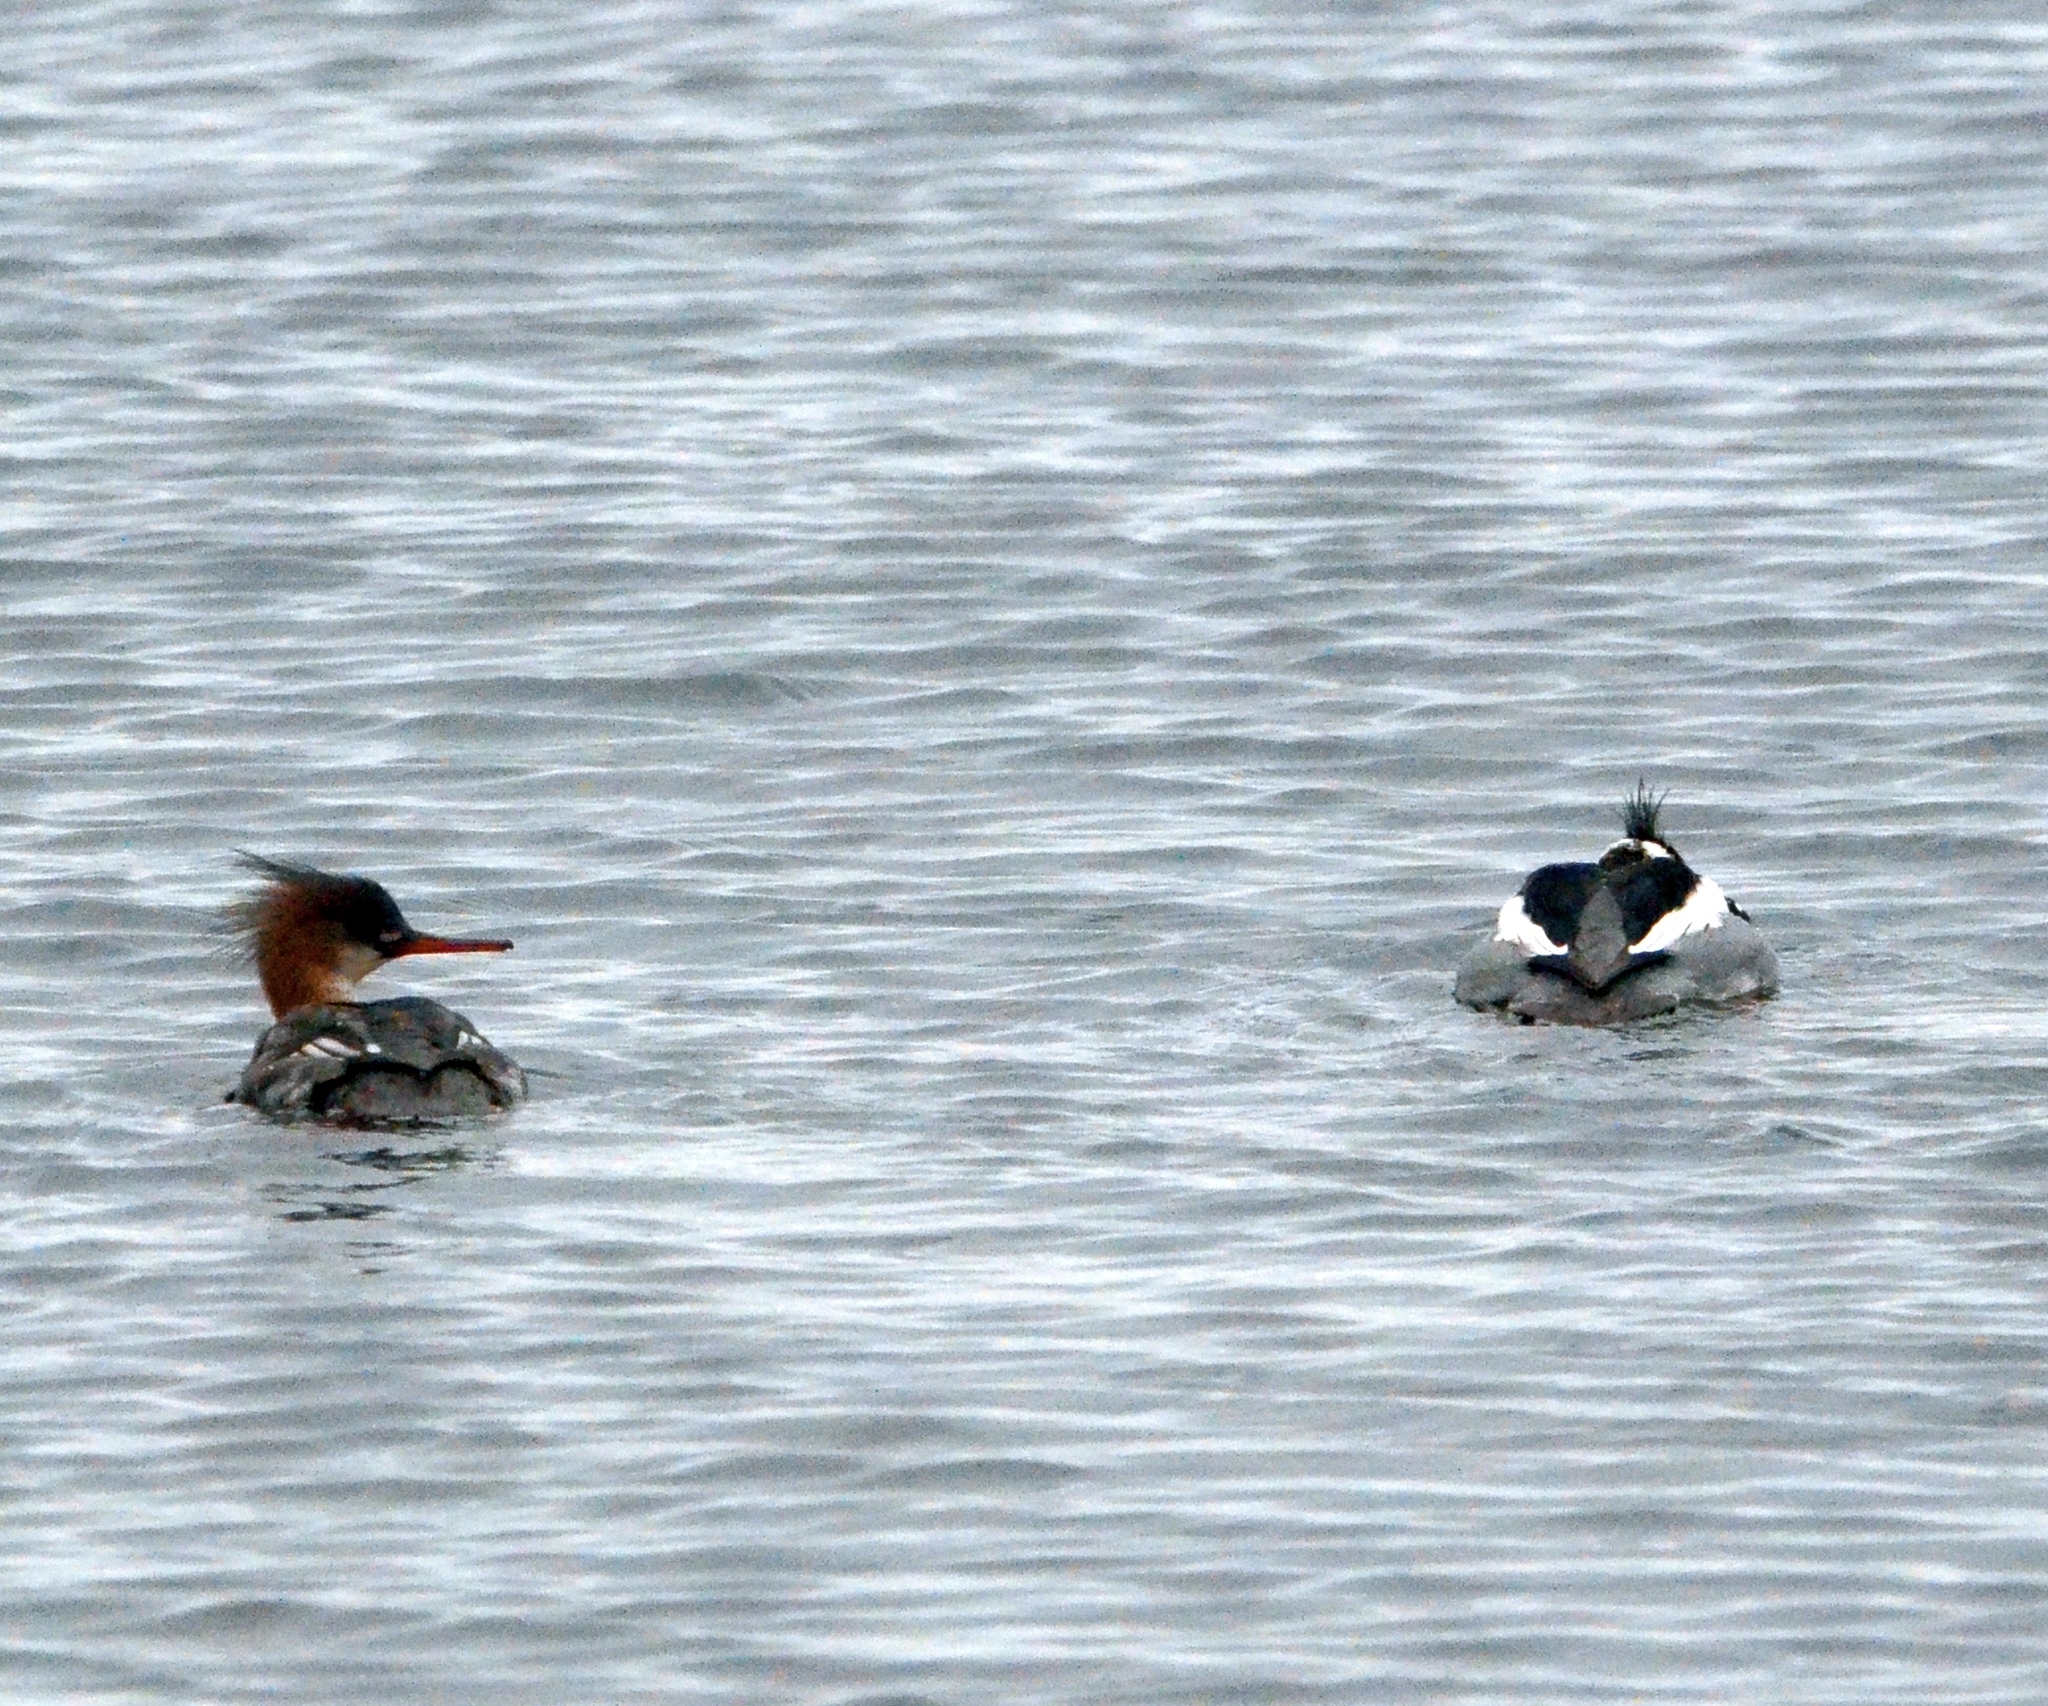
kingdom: Animalia
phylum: Chordata
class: Aves
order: Anseriformes
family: Anatidae
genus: Mergus
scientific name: Mergus serrator
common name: Red-breasted merganser
